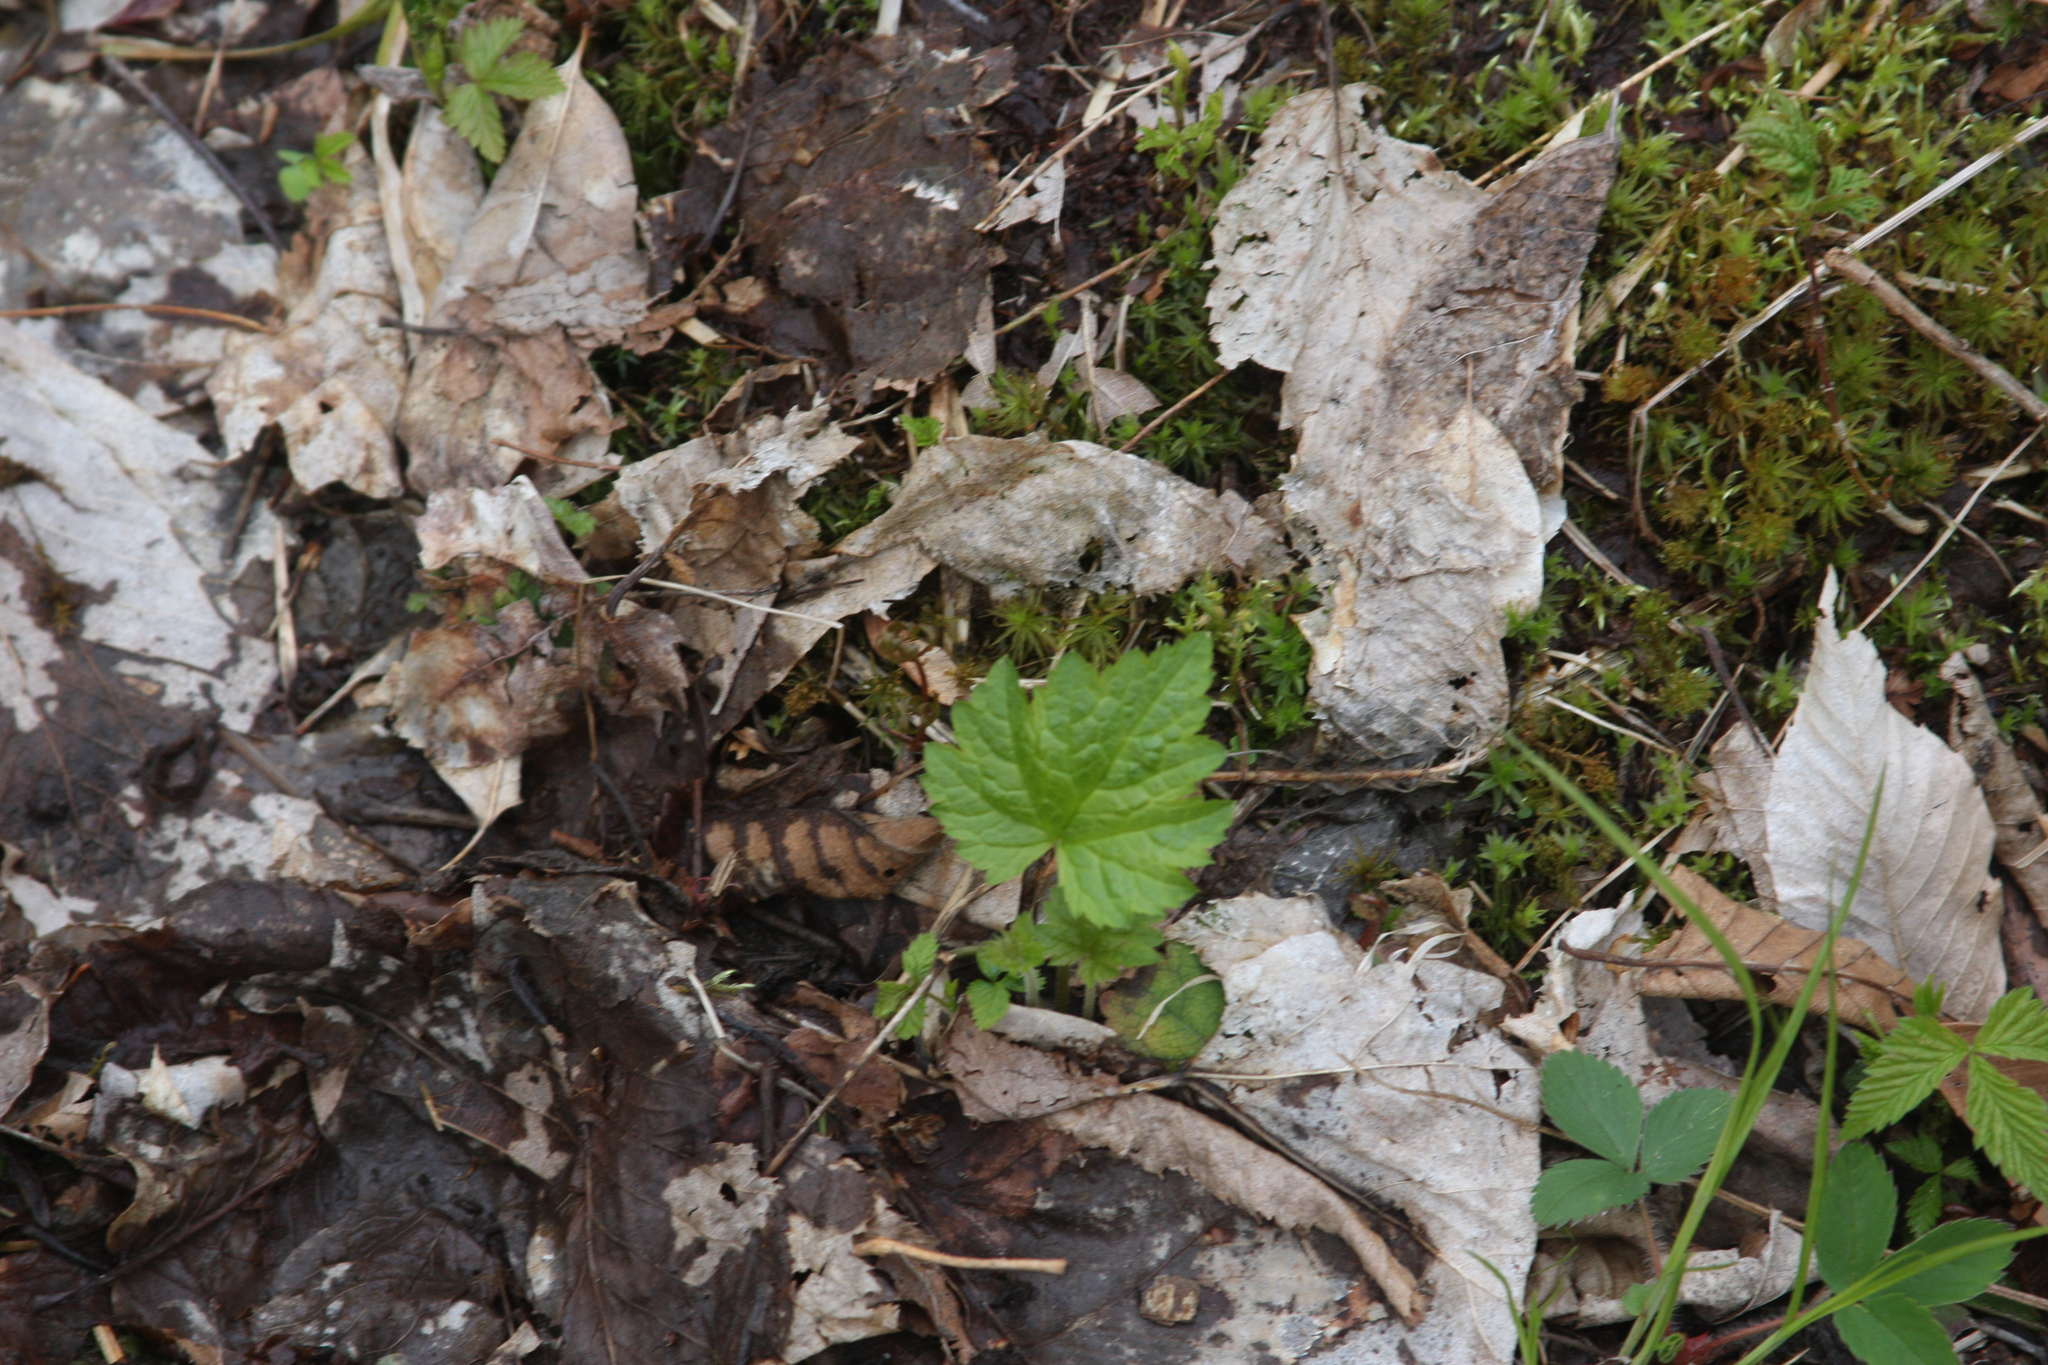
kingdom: Plantae
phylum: Tracheophyta
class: Magnoliopsida
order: Saxifragales
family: Saxifragaceae
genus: Tiarella
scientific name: Tiarella stolonifera
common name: Stoloniferous foamflower
